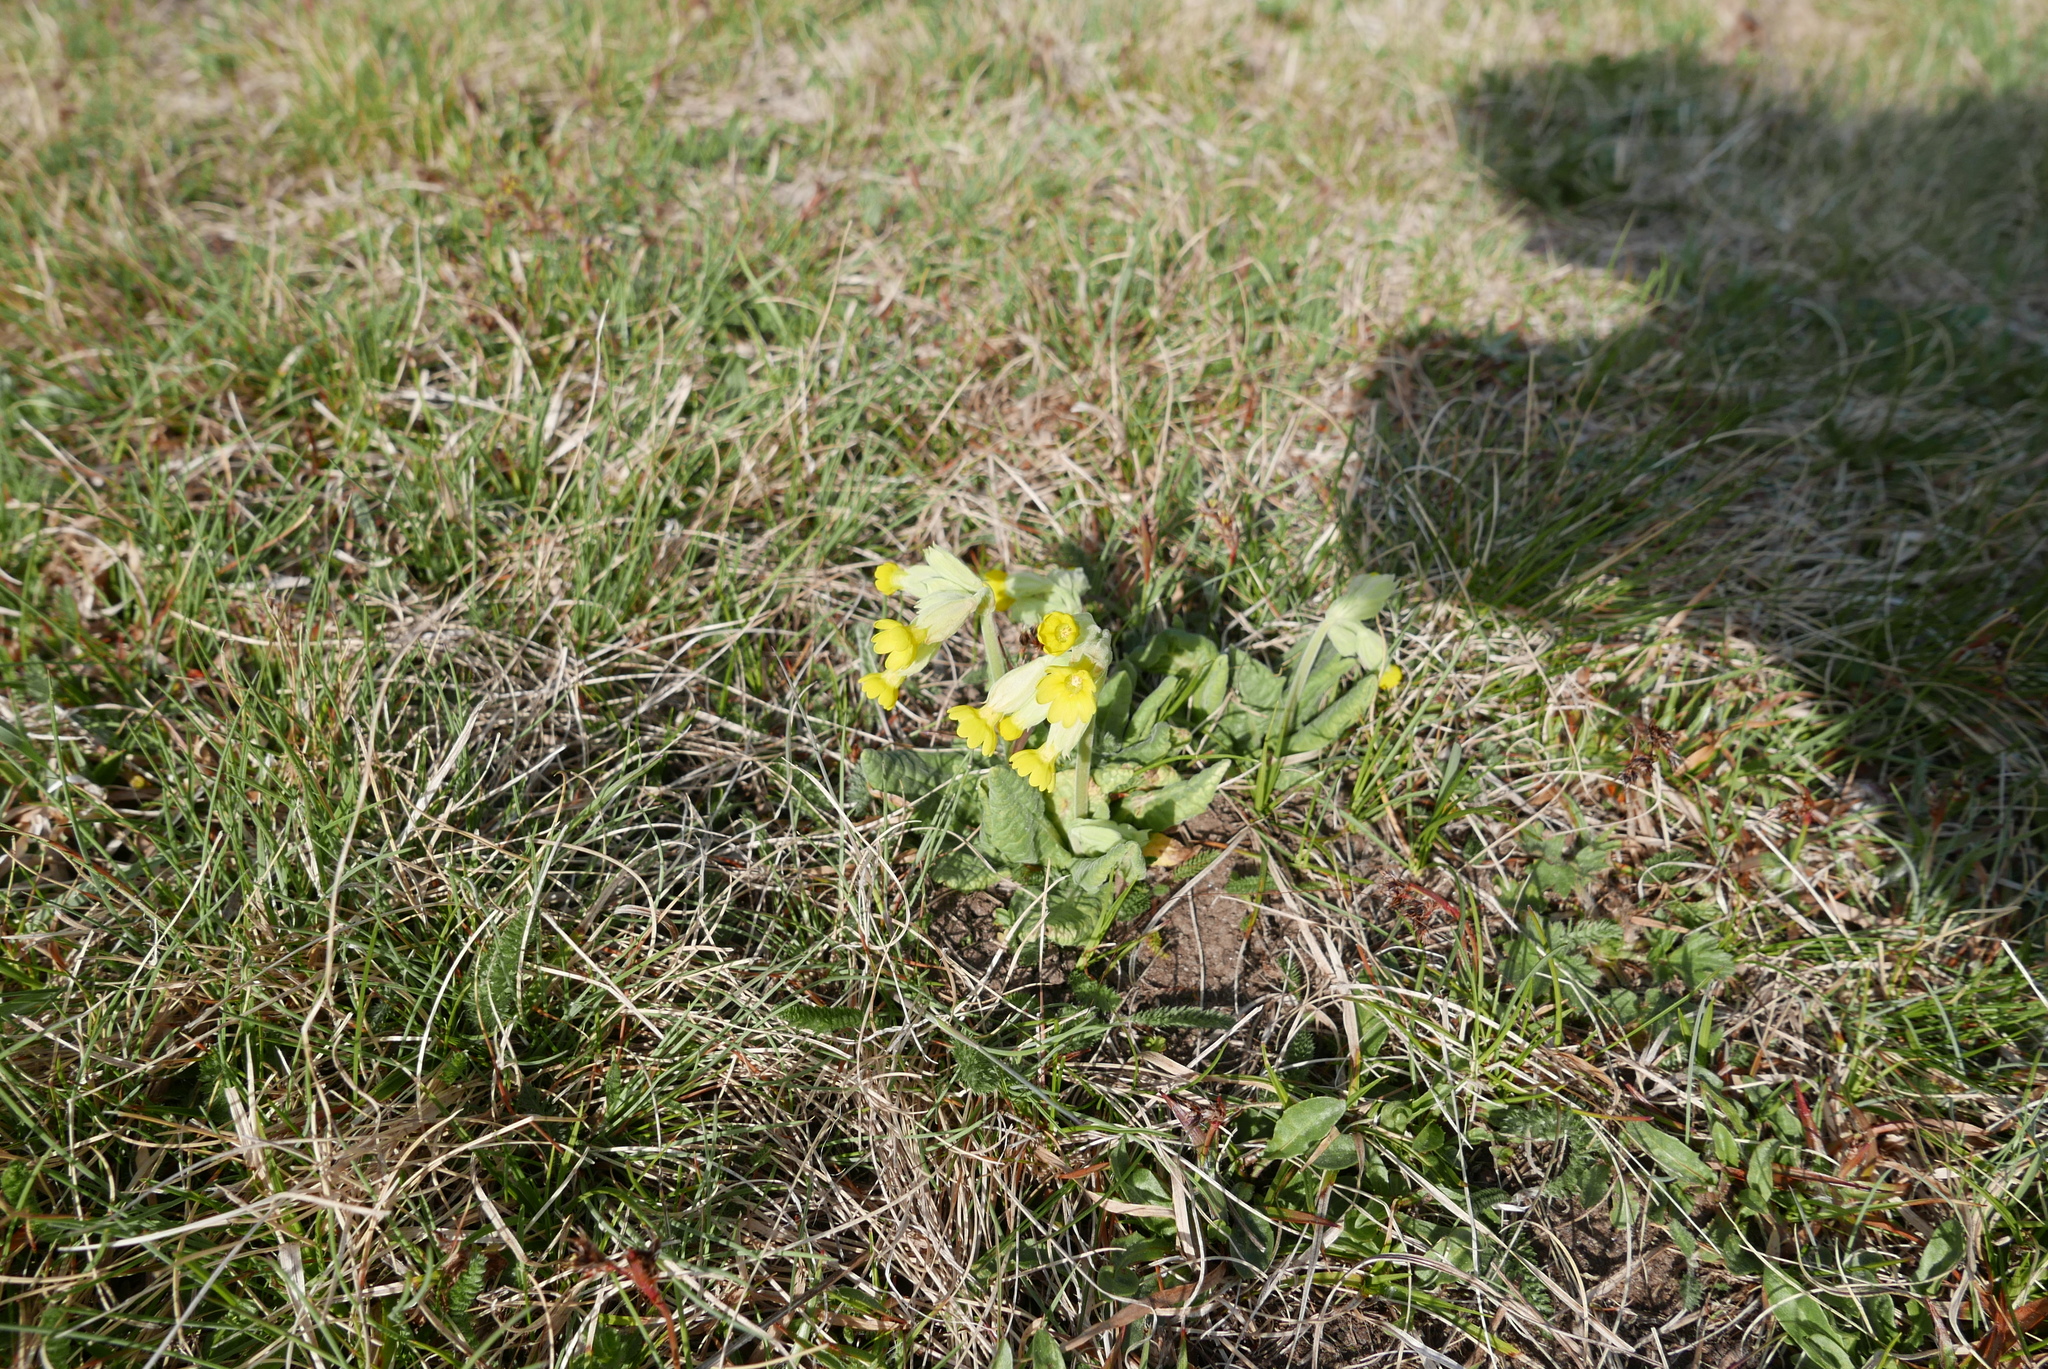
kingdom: Plantae
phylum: Tracheophyta
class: Magnoliopsida
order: Ericales
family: Primulaceae
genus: Primula
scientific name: Primula veris
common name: Cowslip
